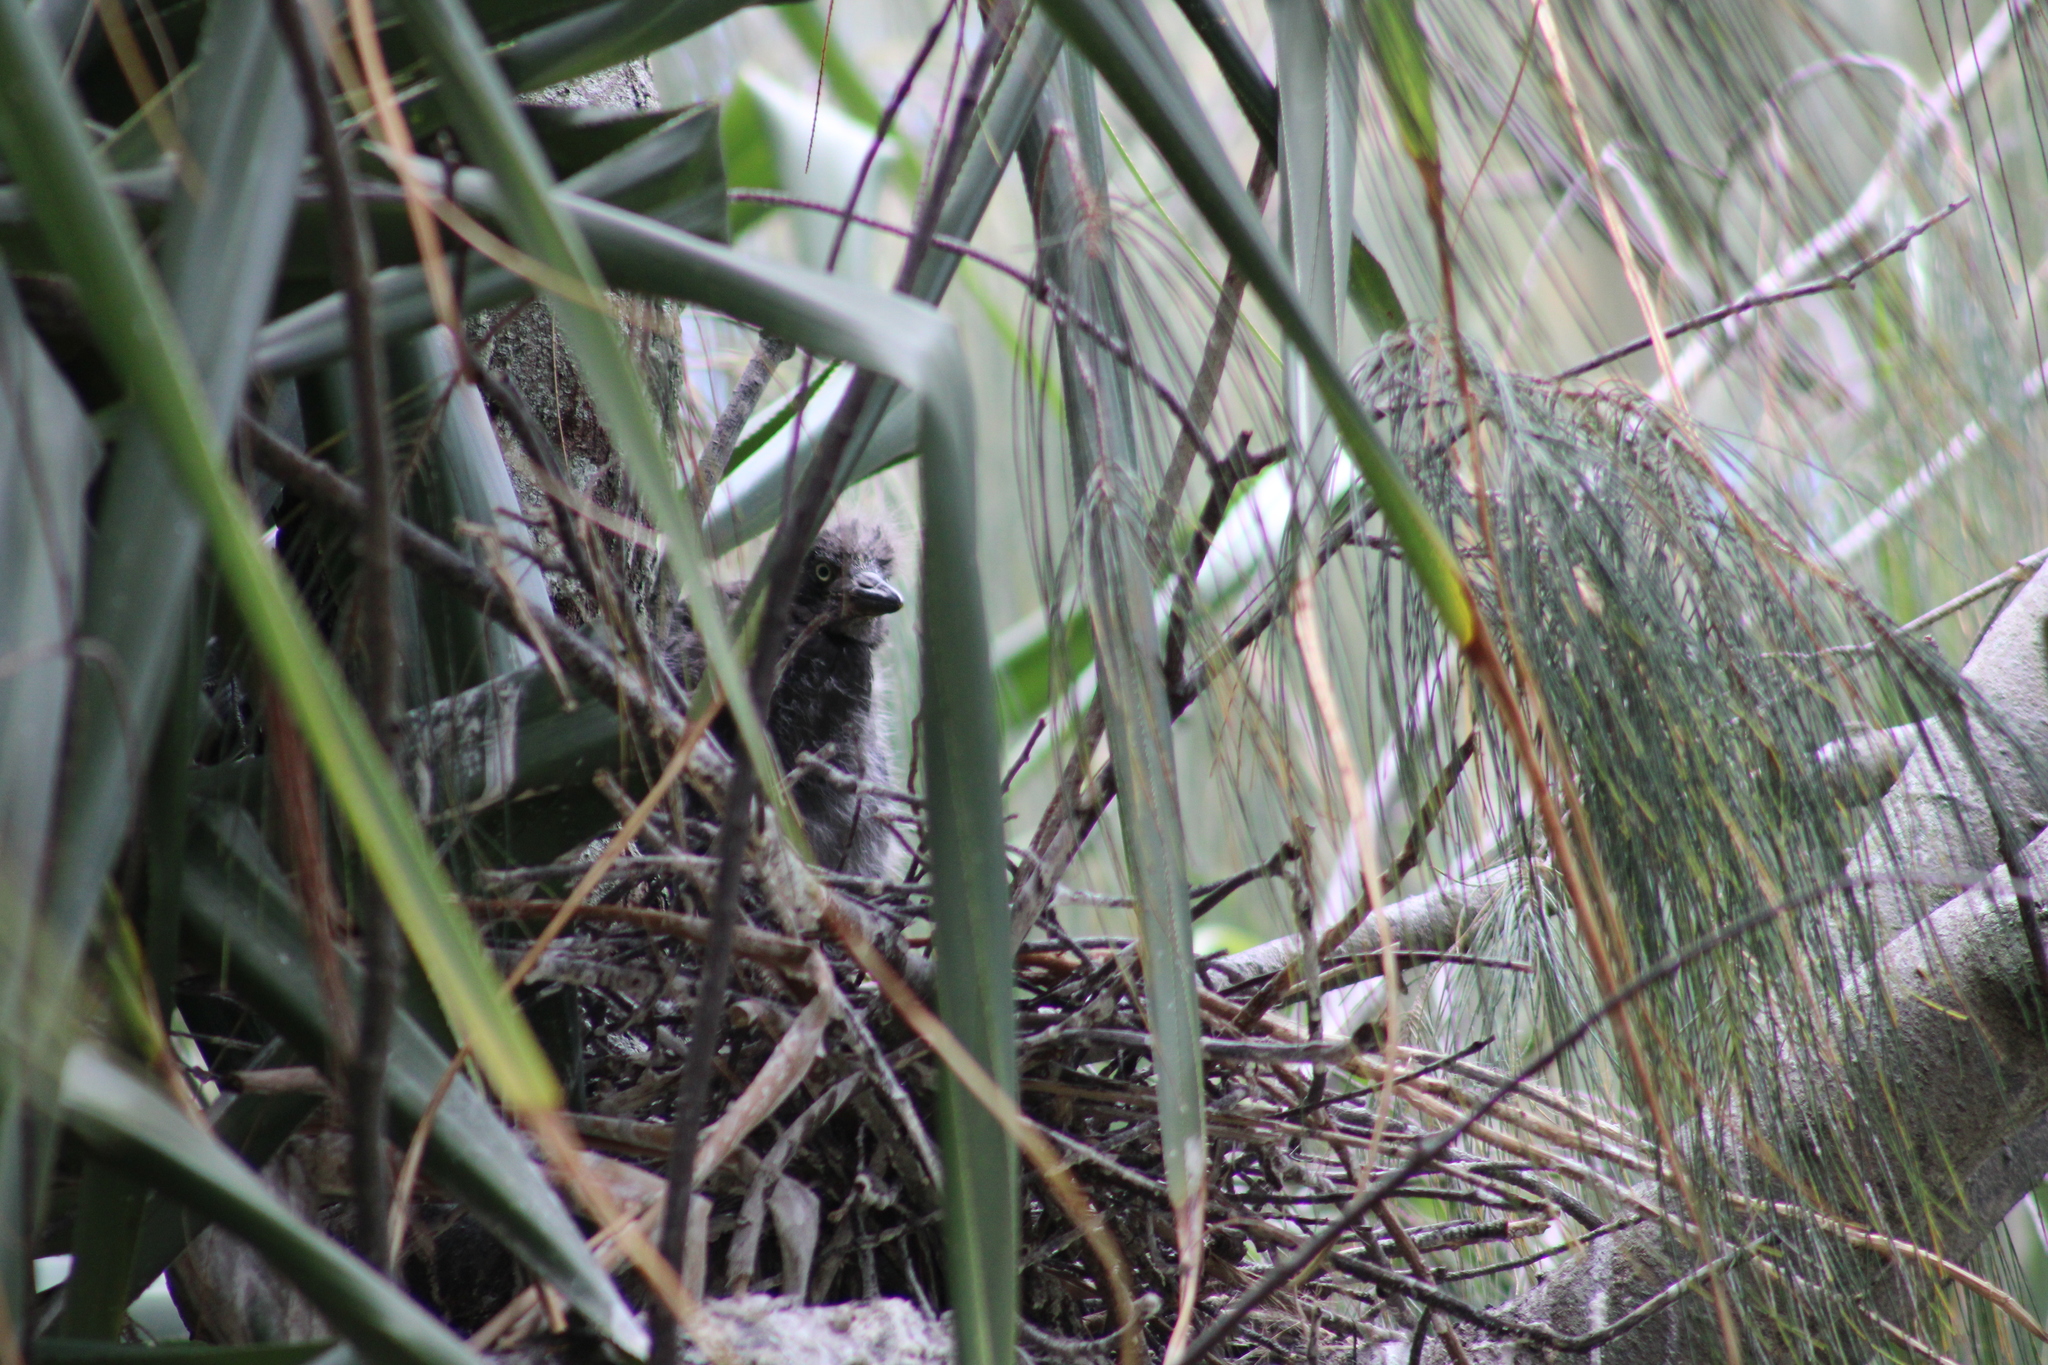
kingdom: Animalia
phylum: Chordata
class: Aves
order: Pelecaniformes
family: Ardeidae
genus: Egretta
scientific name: Egretta sacra
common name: Pacific reef heron
